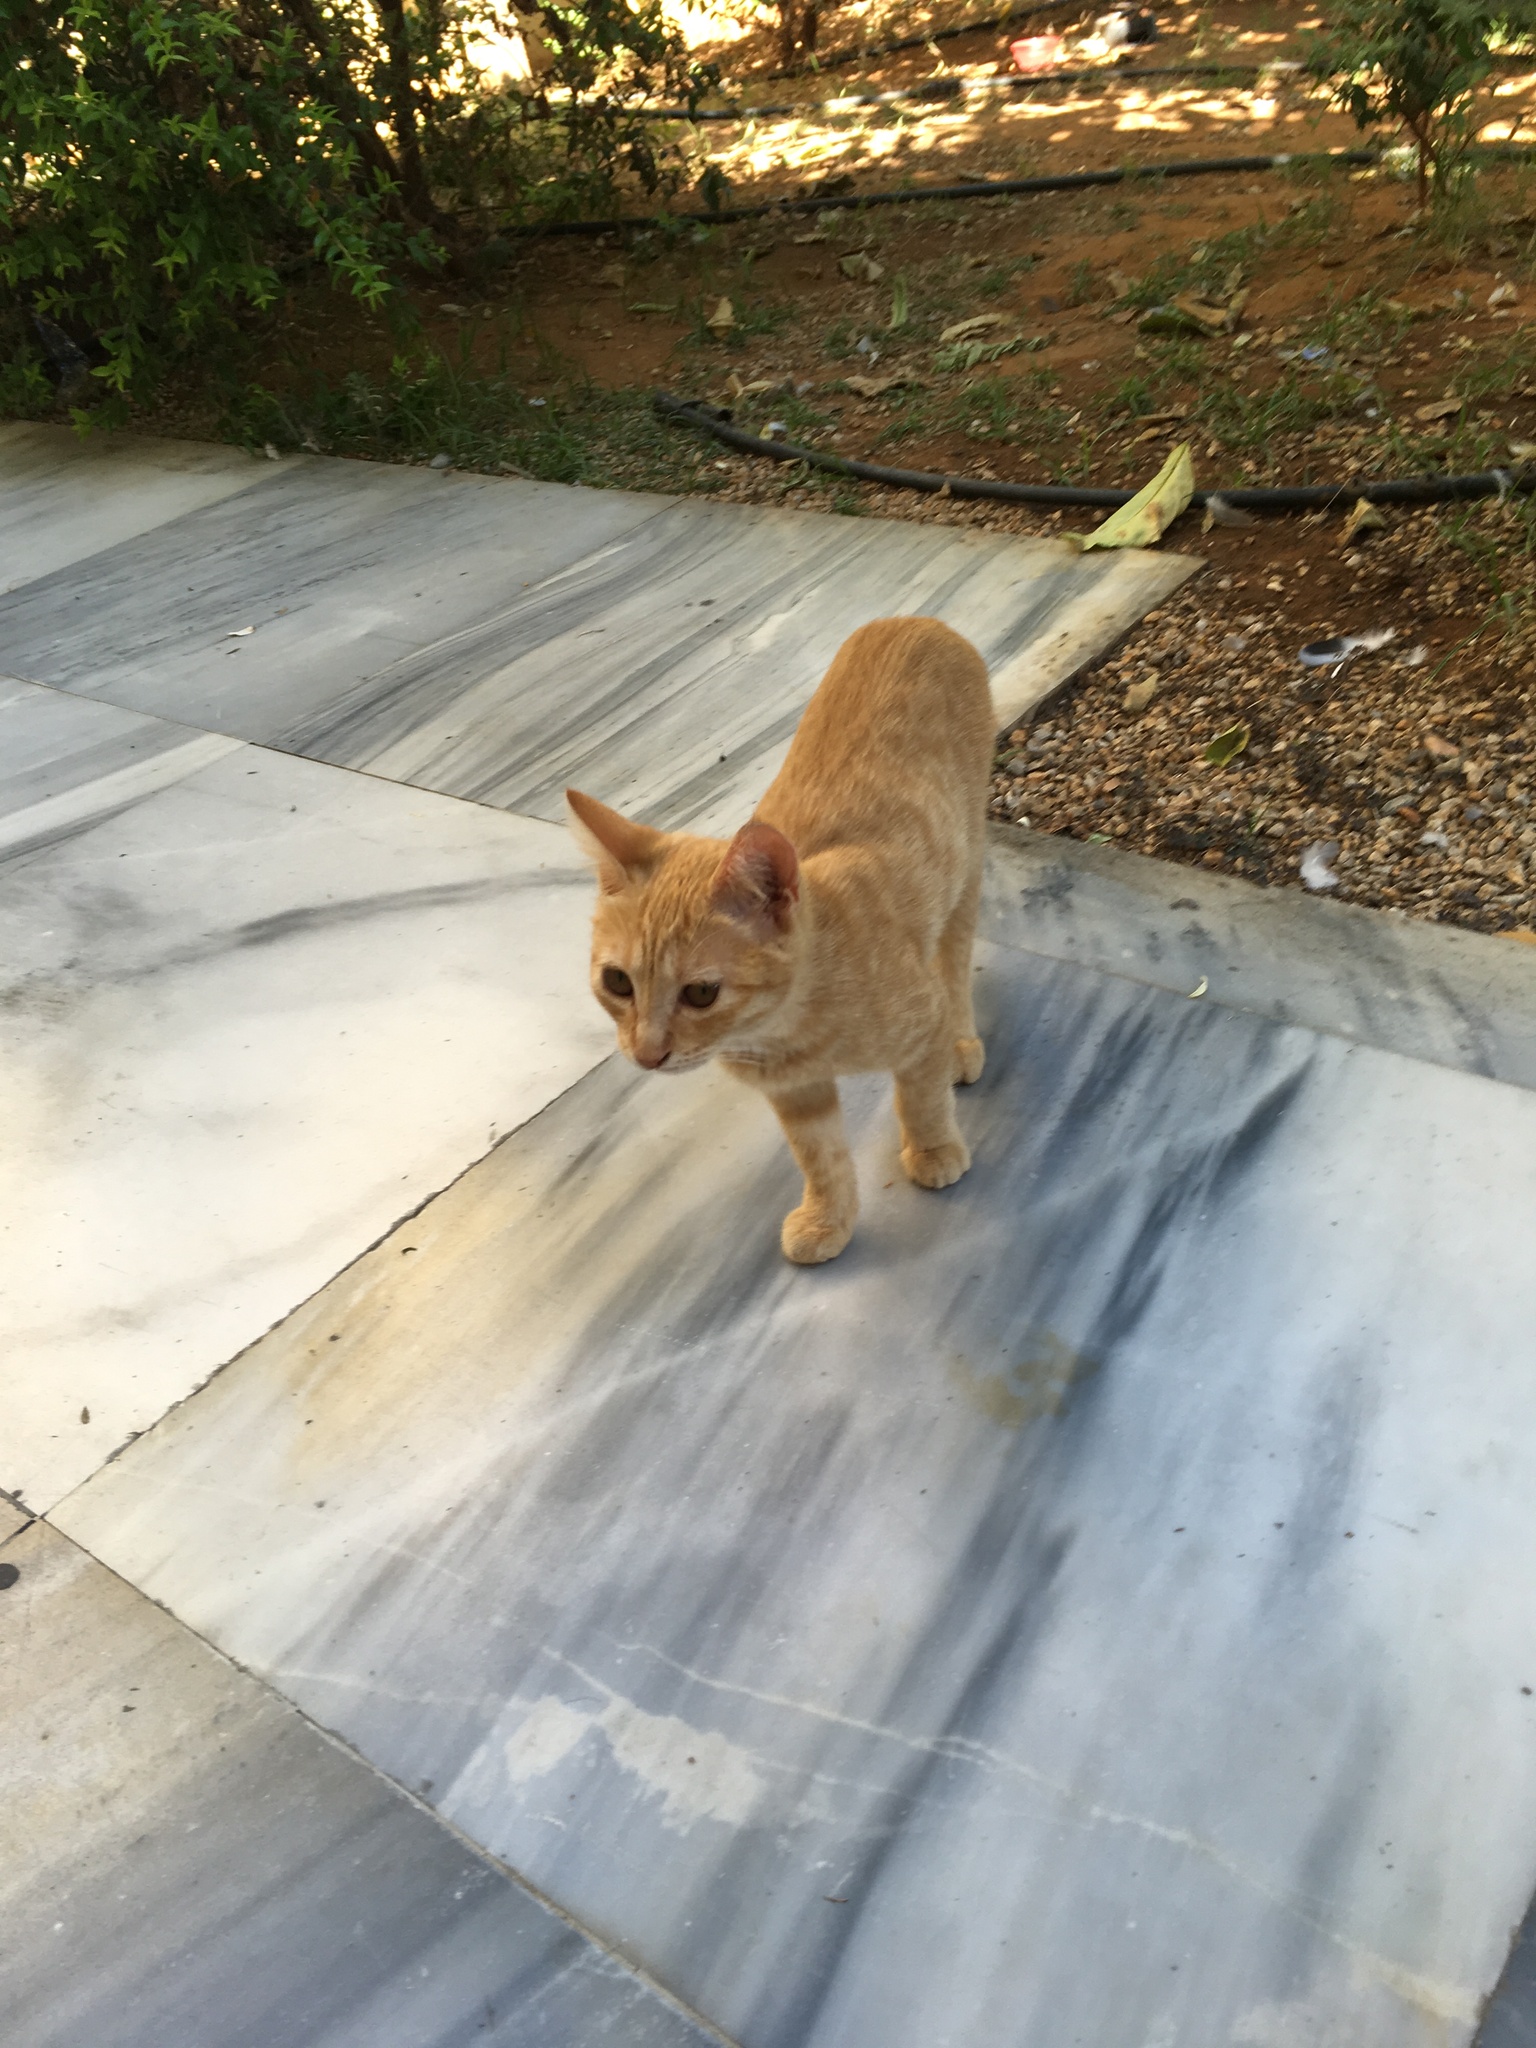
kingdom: Animalia
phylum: Chordata
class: Mammalia
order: Carnivora
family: Felidae
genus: Felis
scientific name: Felis catus
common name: Domestic cat
